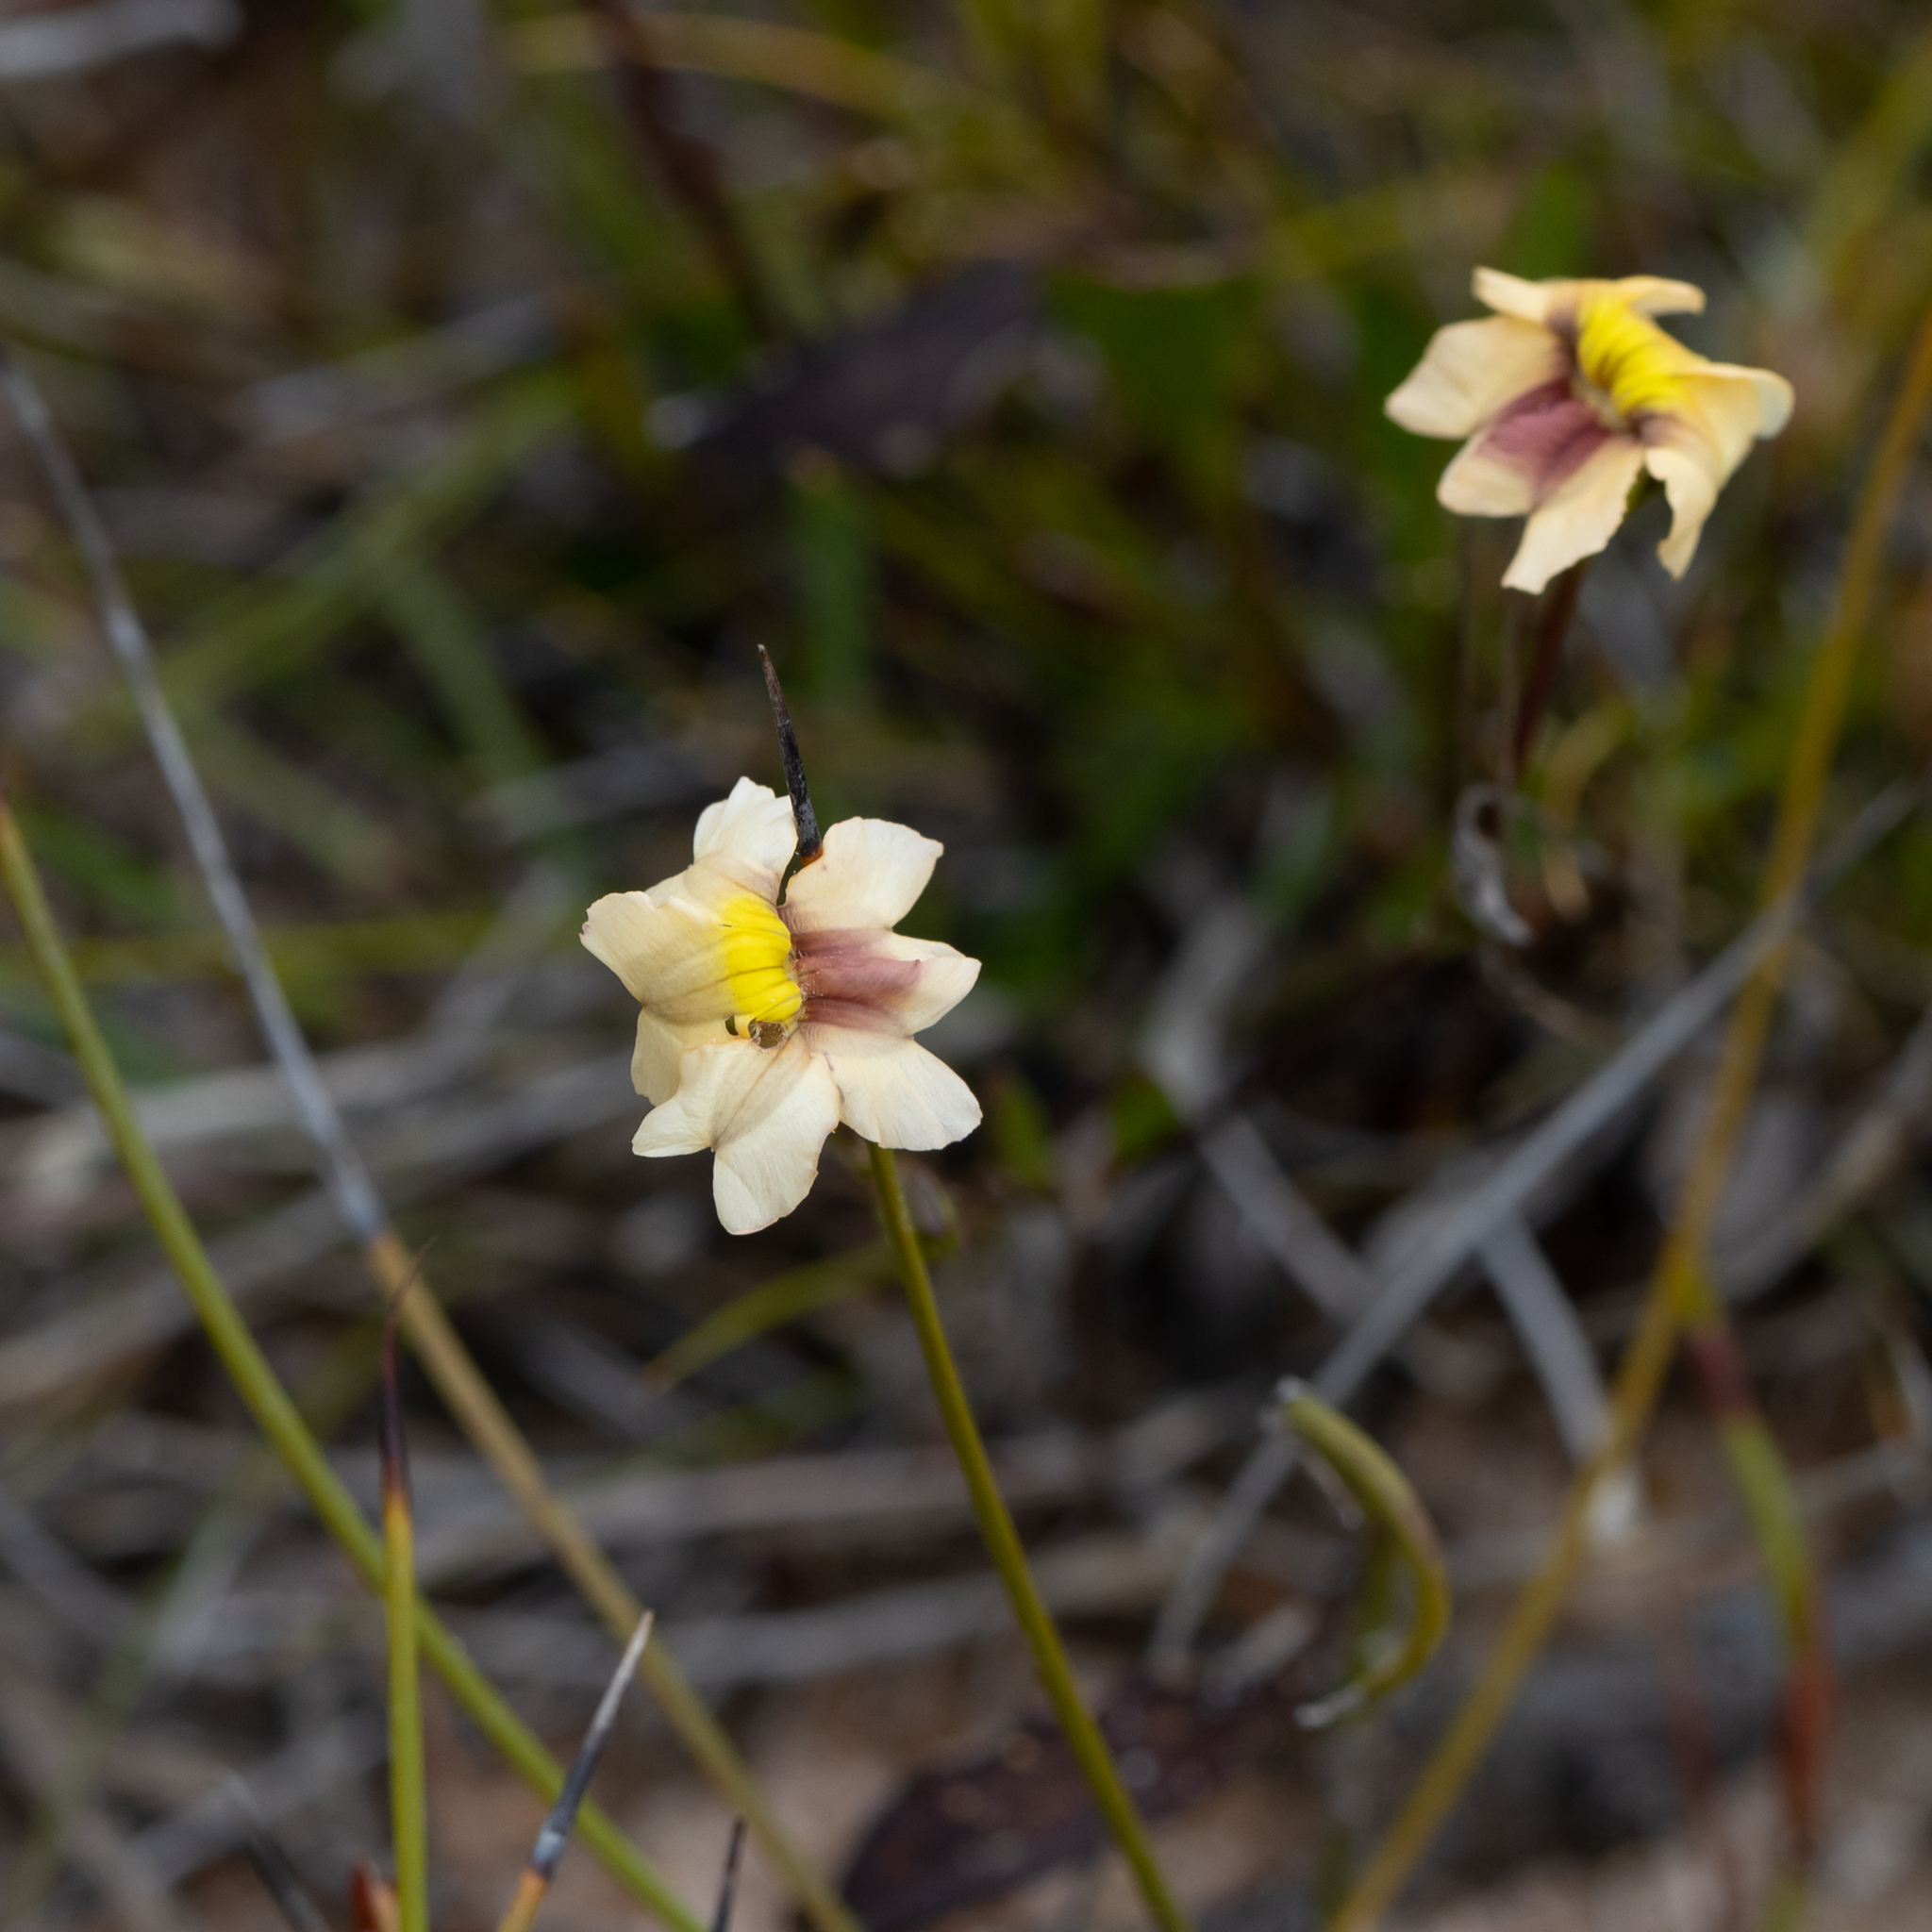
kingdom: Plantae
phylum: Tracheophyta
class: Magnoliopsida
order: Asterales
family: Goodeniaceae
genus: Goodenia
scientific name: Goodenia trinervis
